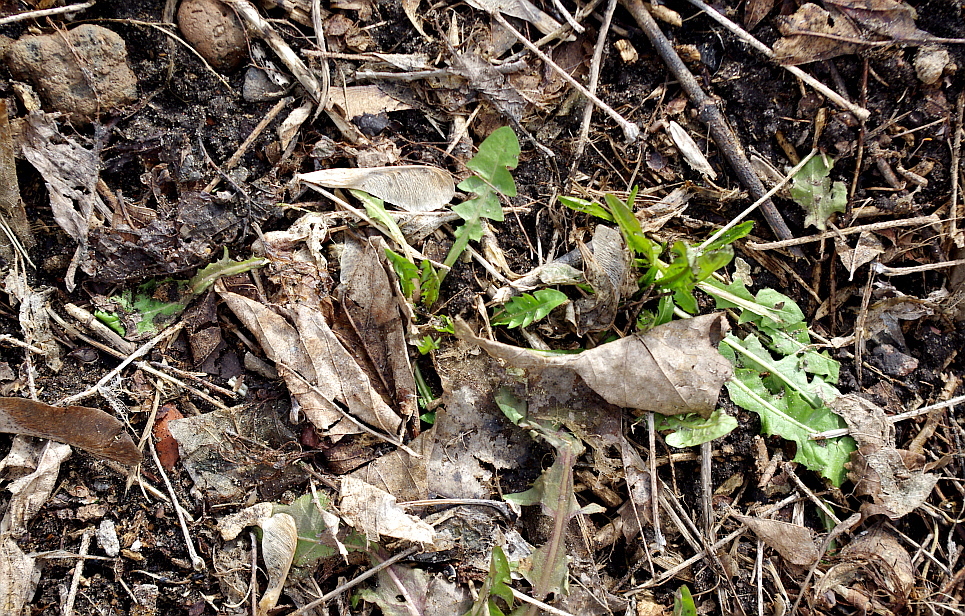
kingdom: Plantae
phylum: Tracheophyta
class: Magnoliopsida
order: Asterales
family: Asteraceae
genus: Taraxacum
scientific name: Taraxacum officinale
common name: Common dandelion
